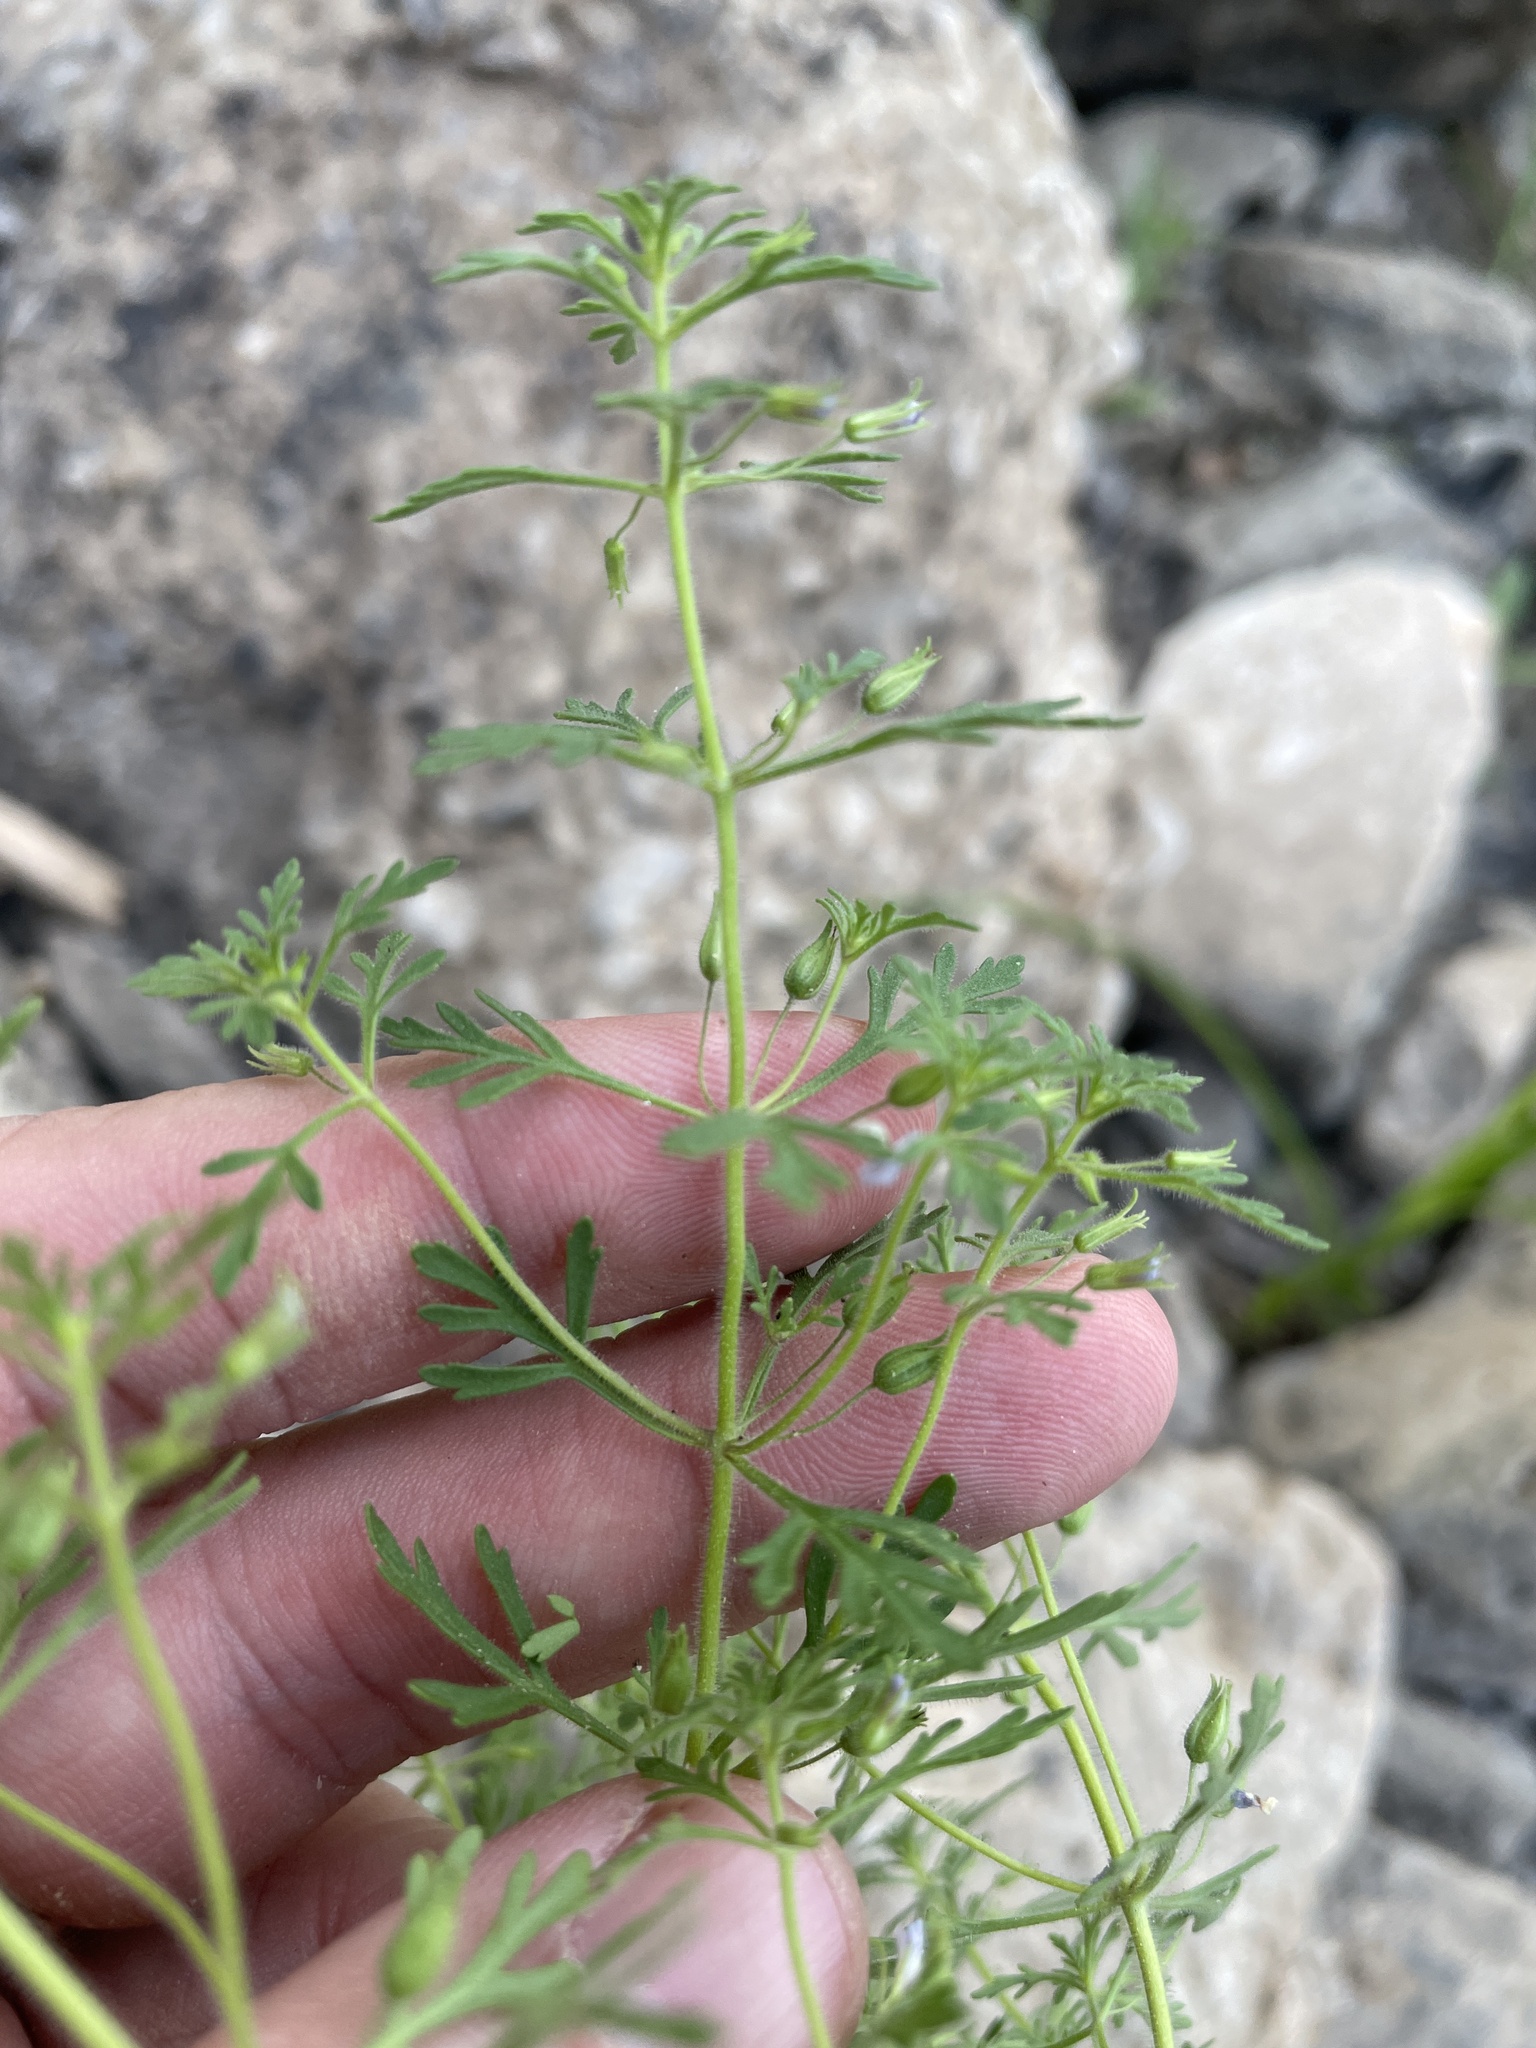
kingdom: Plantae
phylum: Tracheophyta
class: Magnoliopsida
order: Lamiales
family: Plantaginaceae
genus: Leucospora
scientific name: Leucospora multifida
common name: Narrow-leaf paleseed
